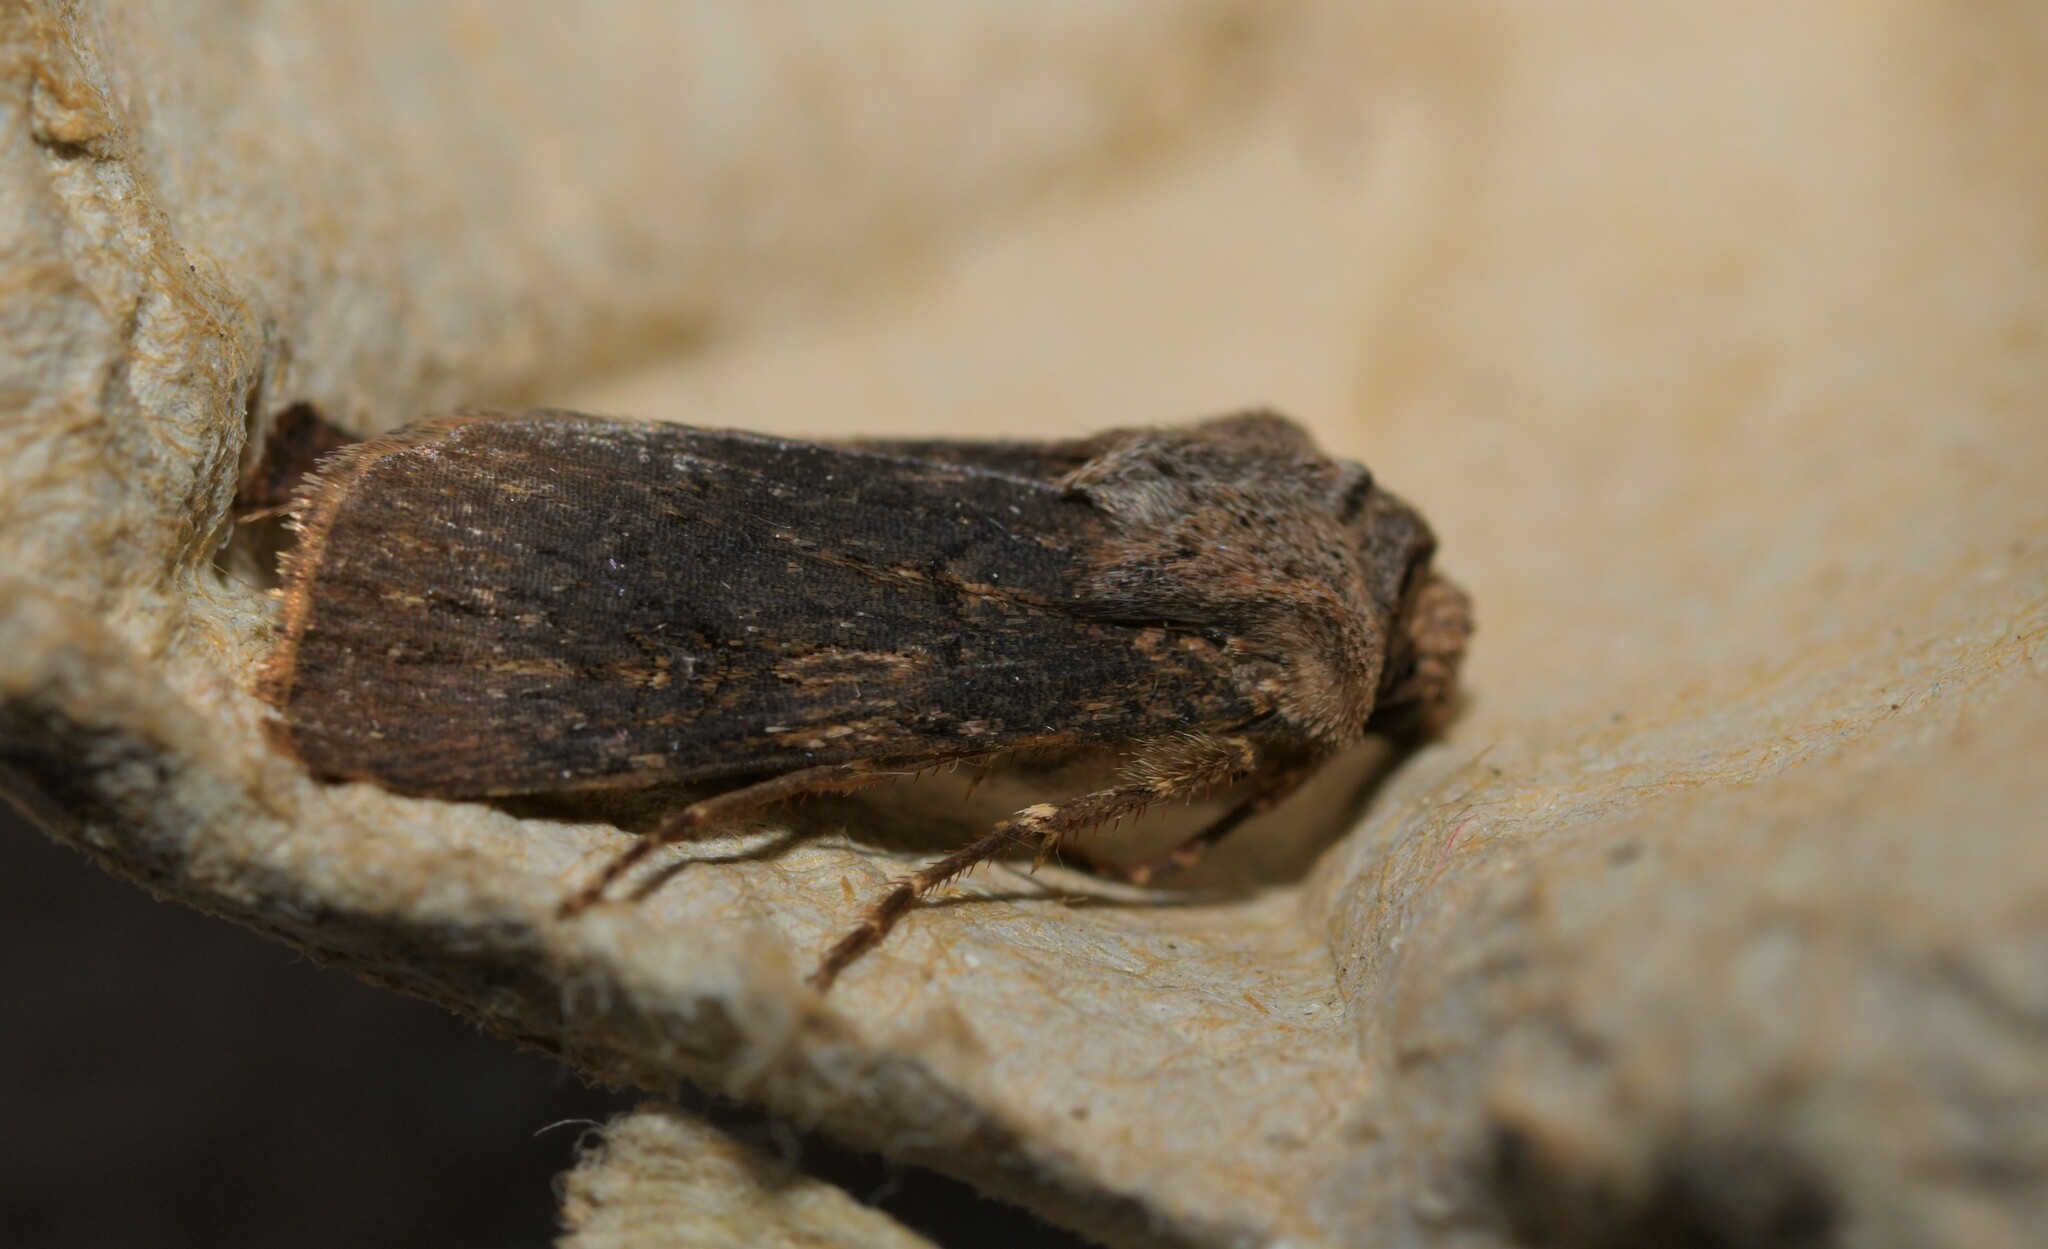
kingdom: Animalia
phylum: Arthropoda
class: Insecta
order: Lepidoptera
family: Noctuidae
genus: Agrotis
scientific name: Agrotis puta
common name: Shuttle-shaped dart
